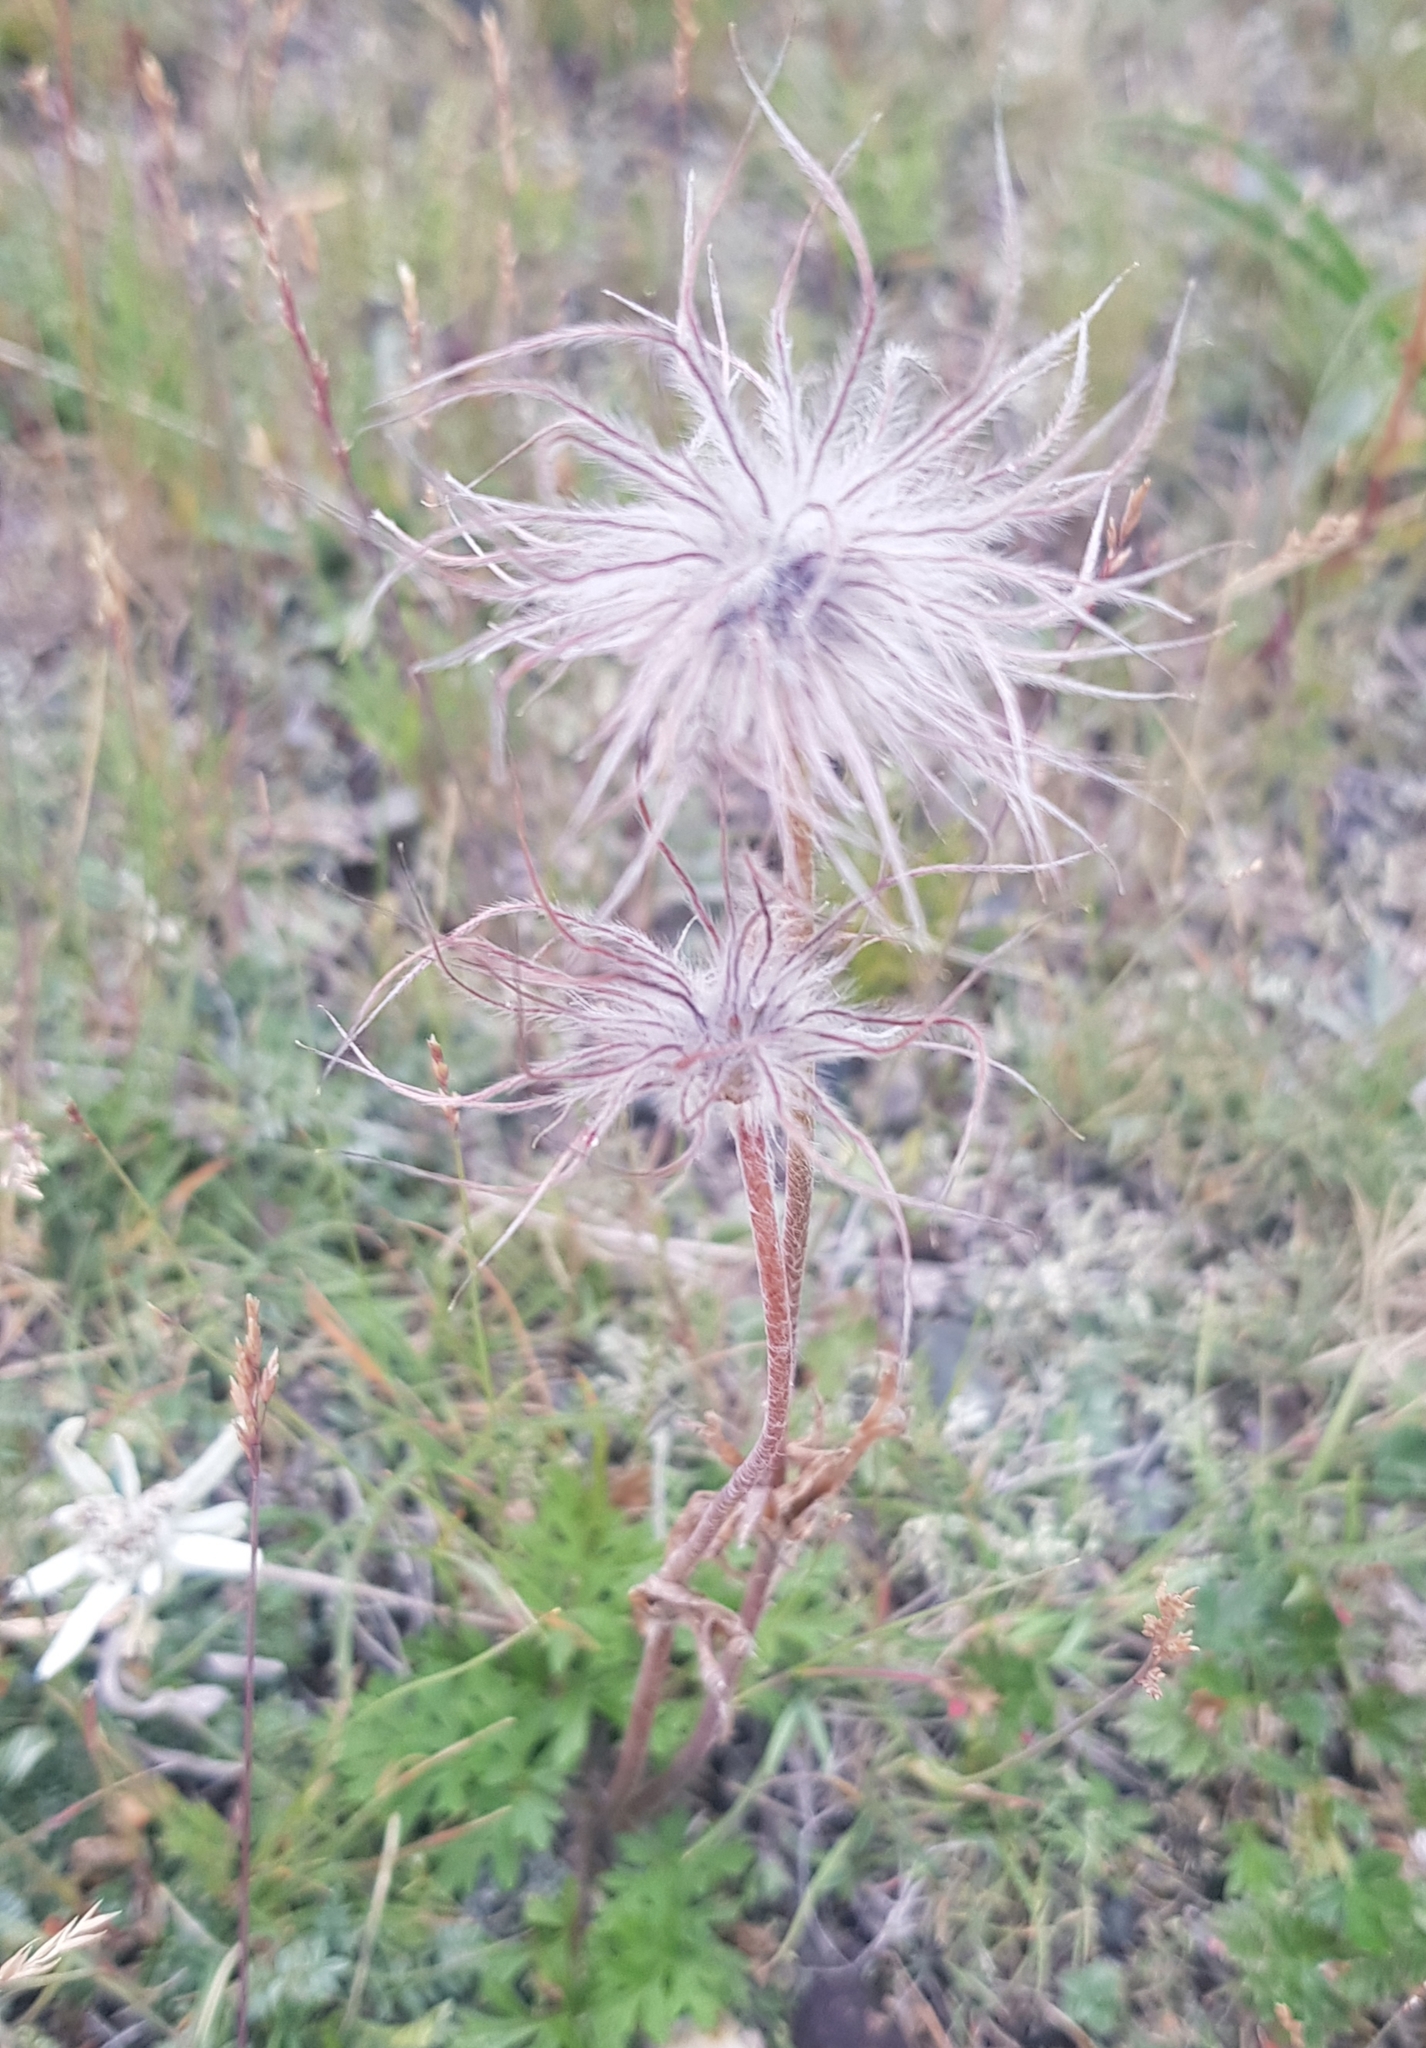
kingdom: Plantae
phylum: Tracheophyta
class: Magnoliopsida
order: Ranunculales
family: Ranunculaceae
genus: Pulsatilla
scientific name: Pulsatilla ambigua
